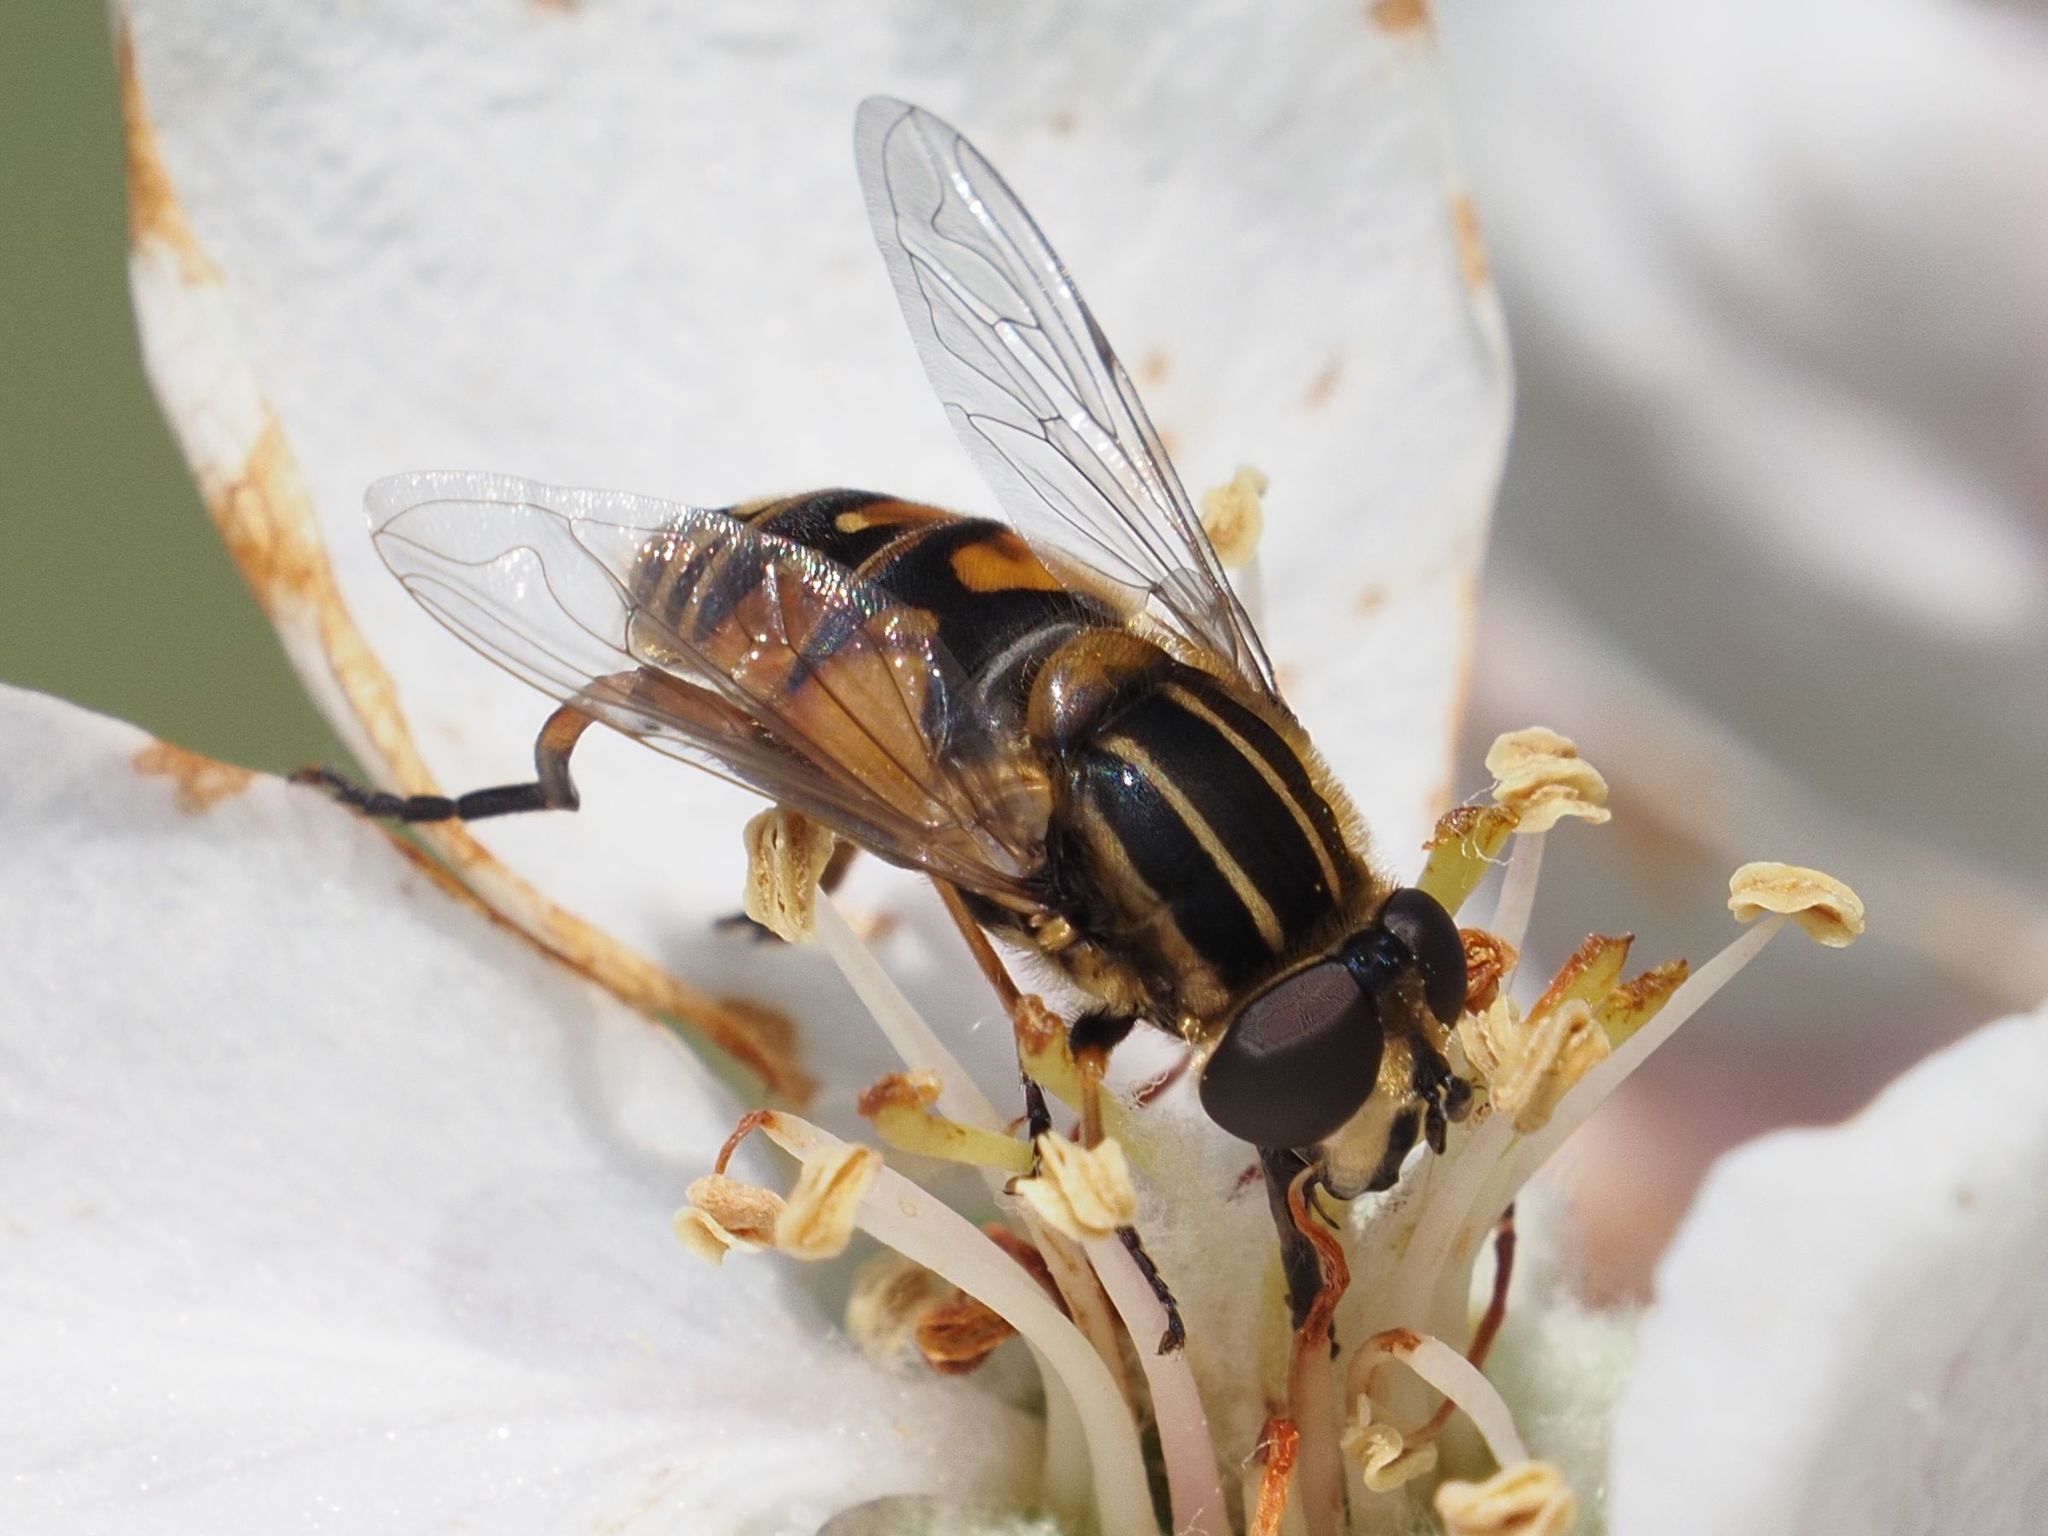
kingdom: Animalia
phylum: Arthropoda
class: Insecta
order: Diptera
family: Syrphidae
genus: Helophilus
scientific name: Helophilus pendulus
